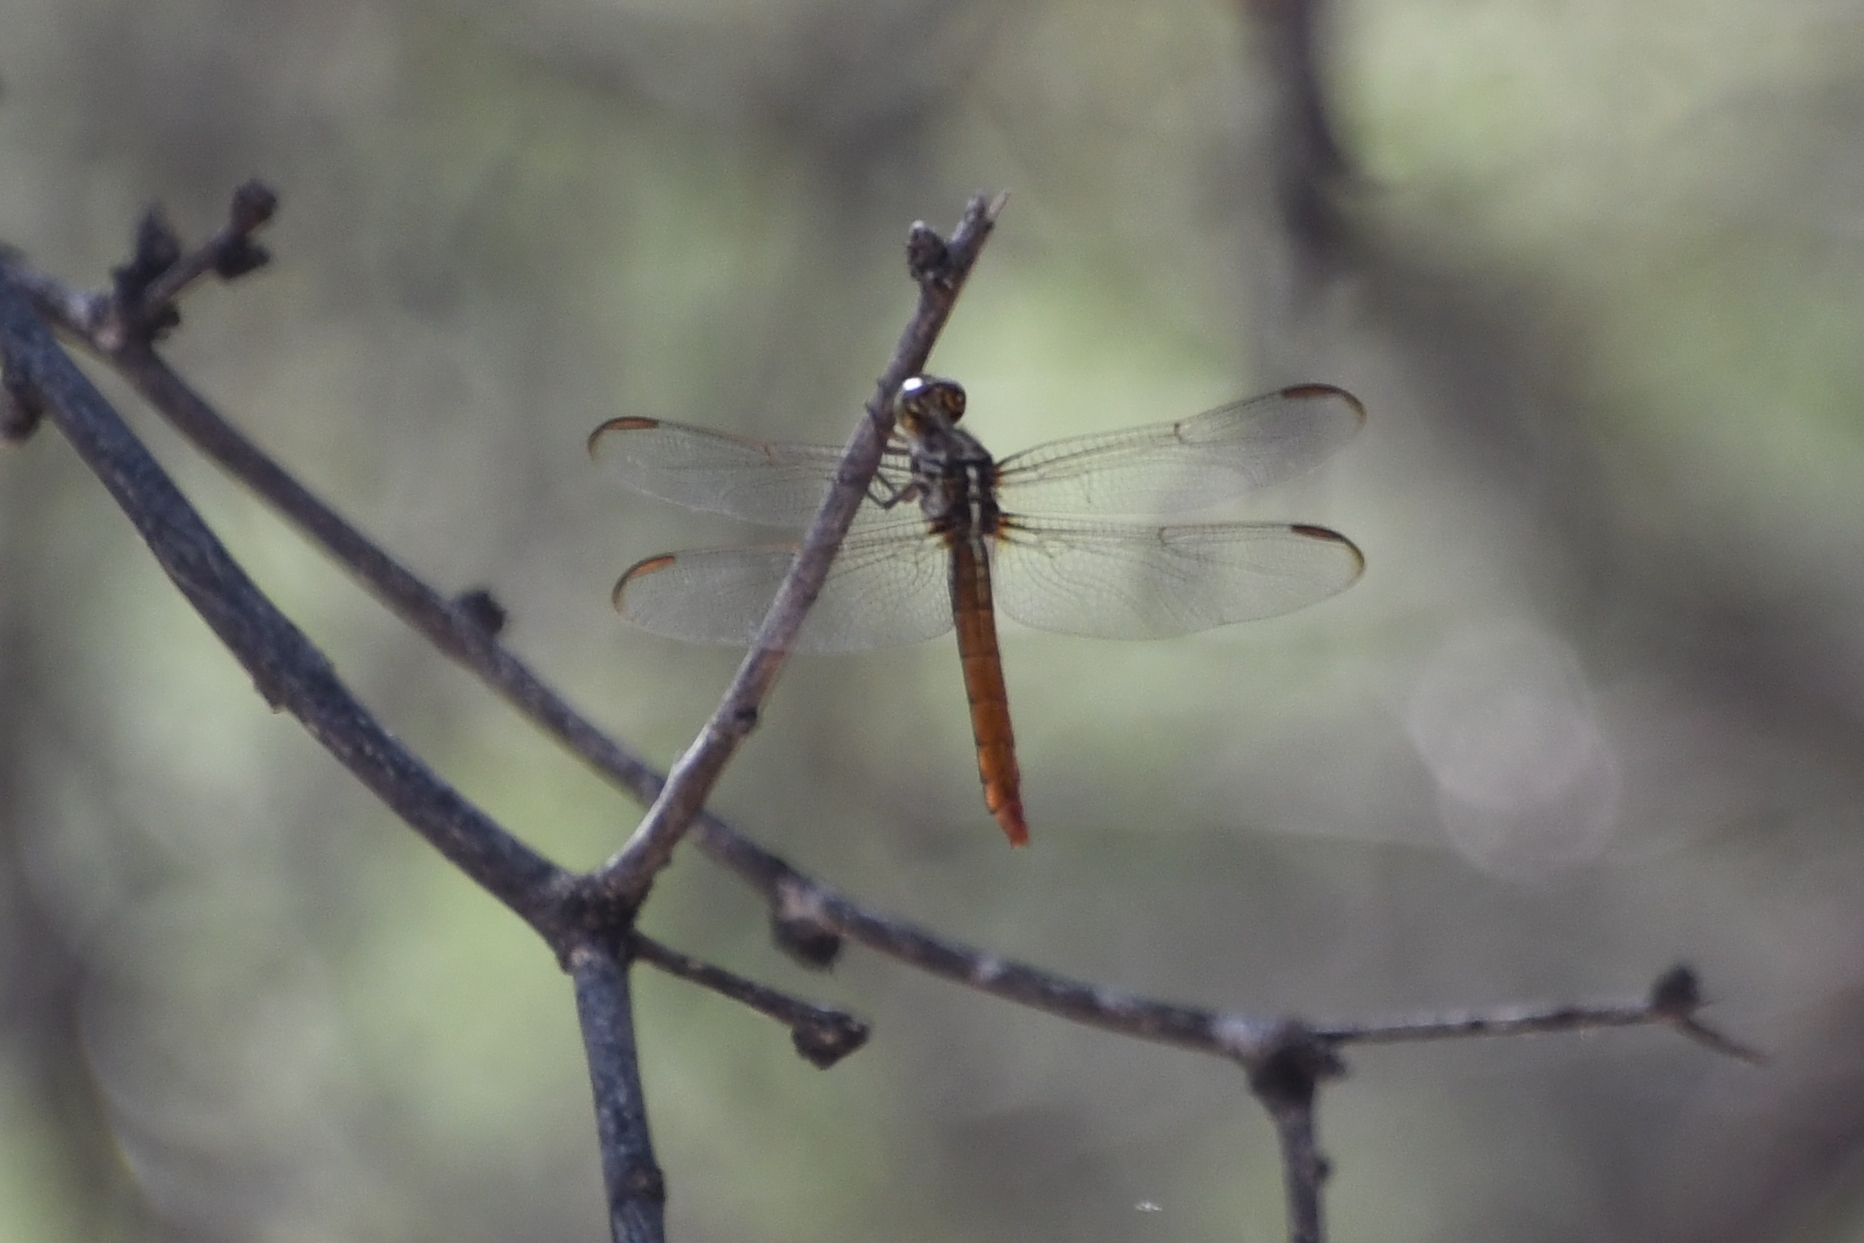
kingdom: Animalia
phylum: Arthropoda
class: Insecta
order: Odonata
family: Libellulidae
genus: Orthemis
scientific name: Orthemis ferruginea
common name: Roseate skimmer
